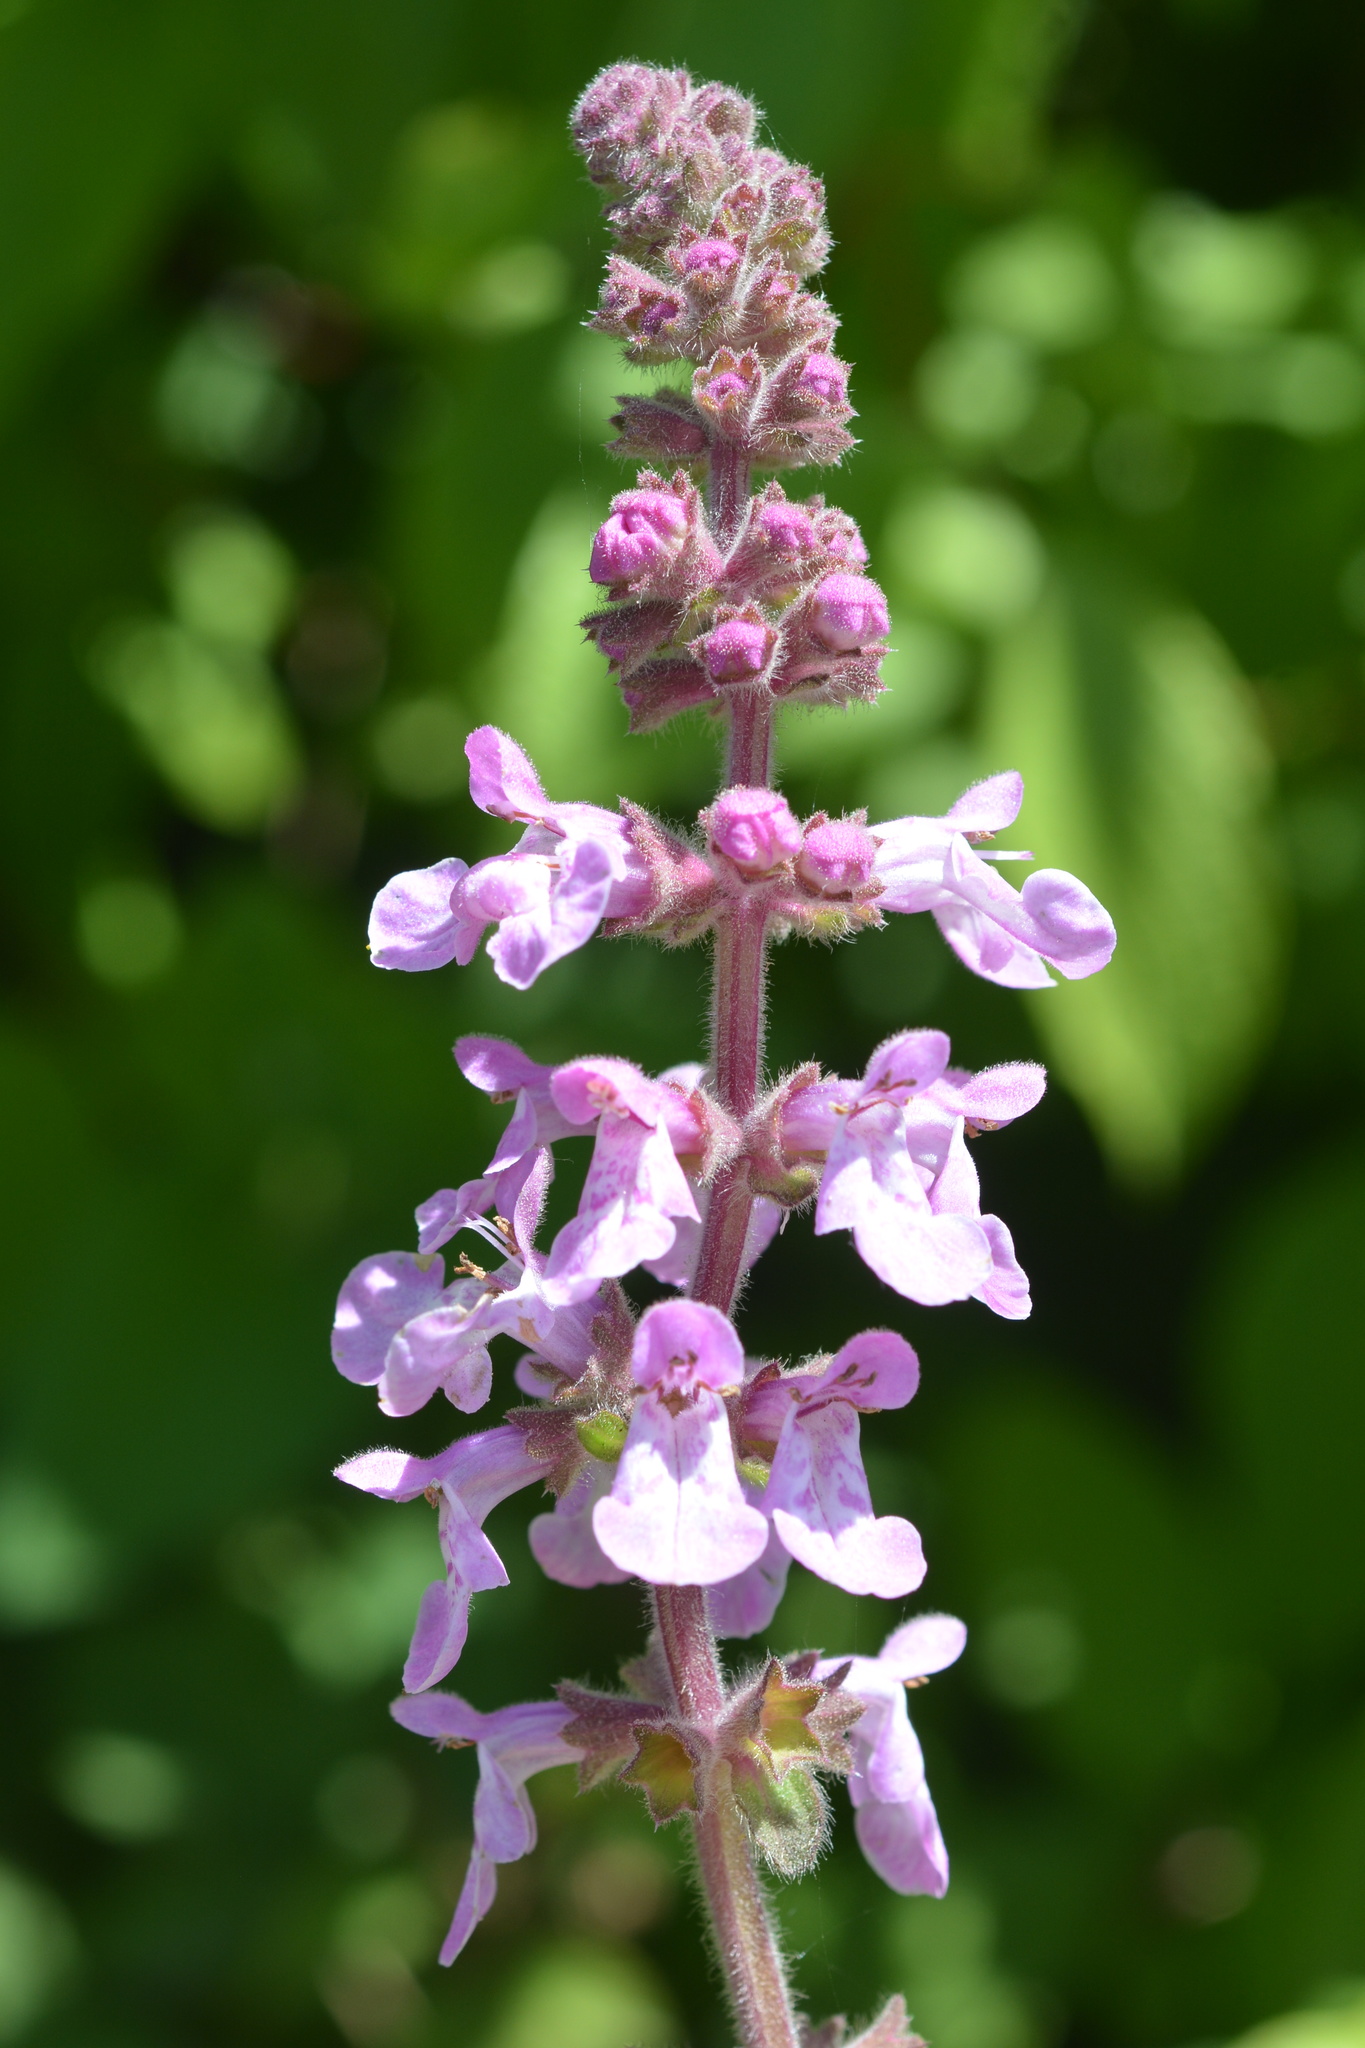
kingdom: Plantae
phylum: Tracheophyta
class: Magnoliopsida
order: Lamiales
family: Lamiaceae
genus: Stachys
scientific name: Stachys bullata
